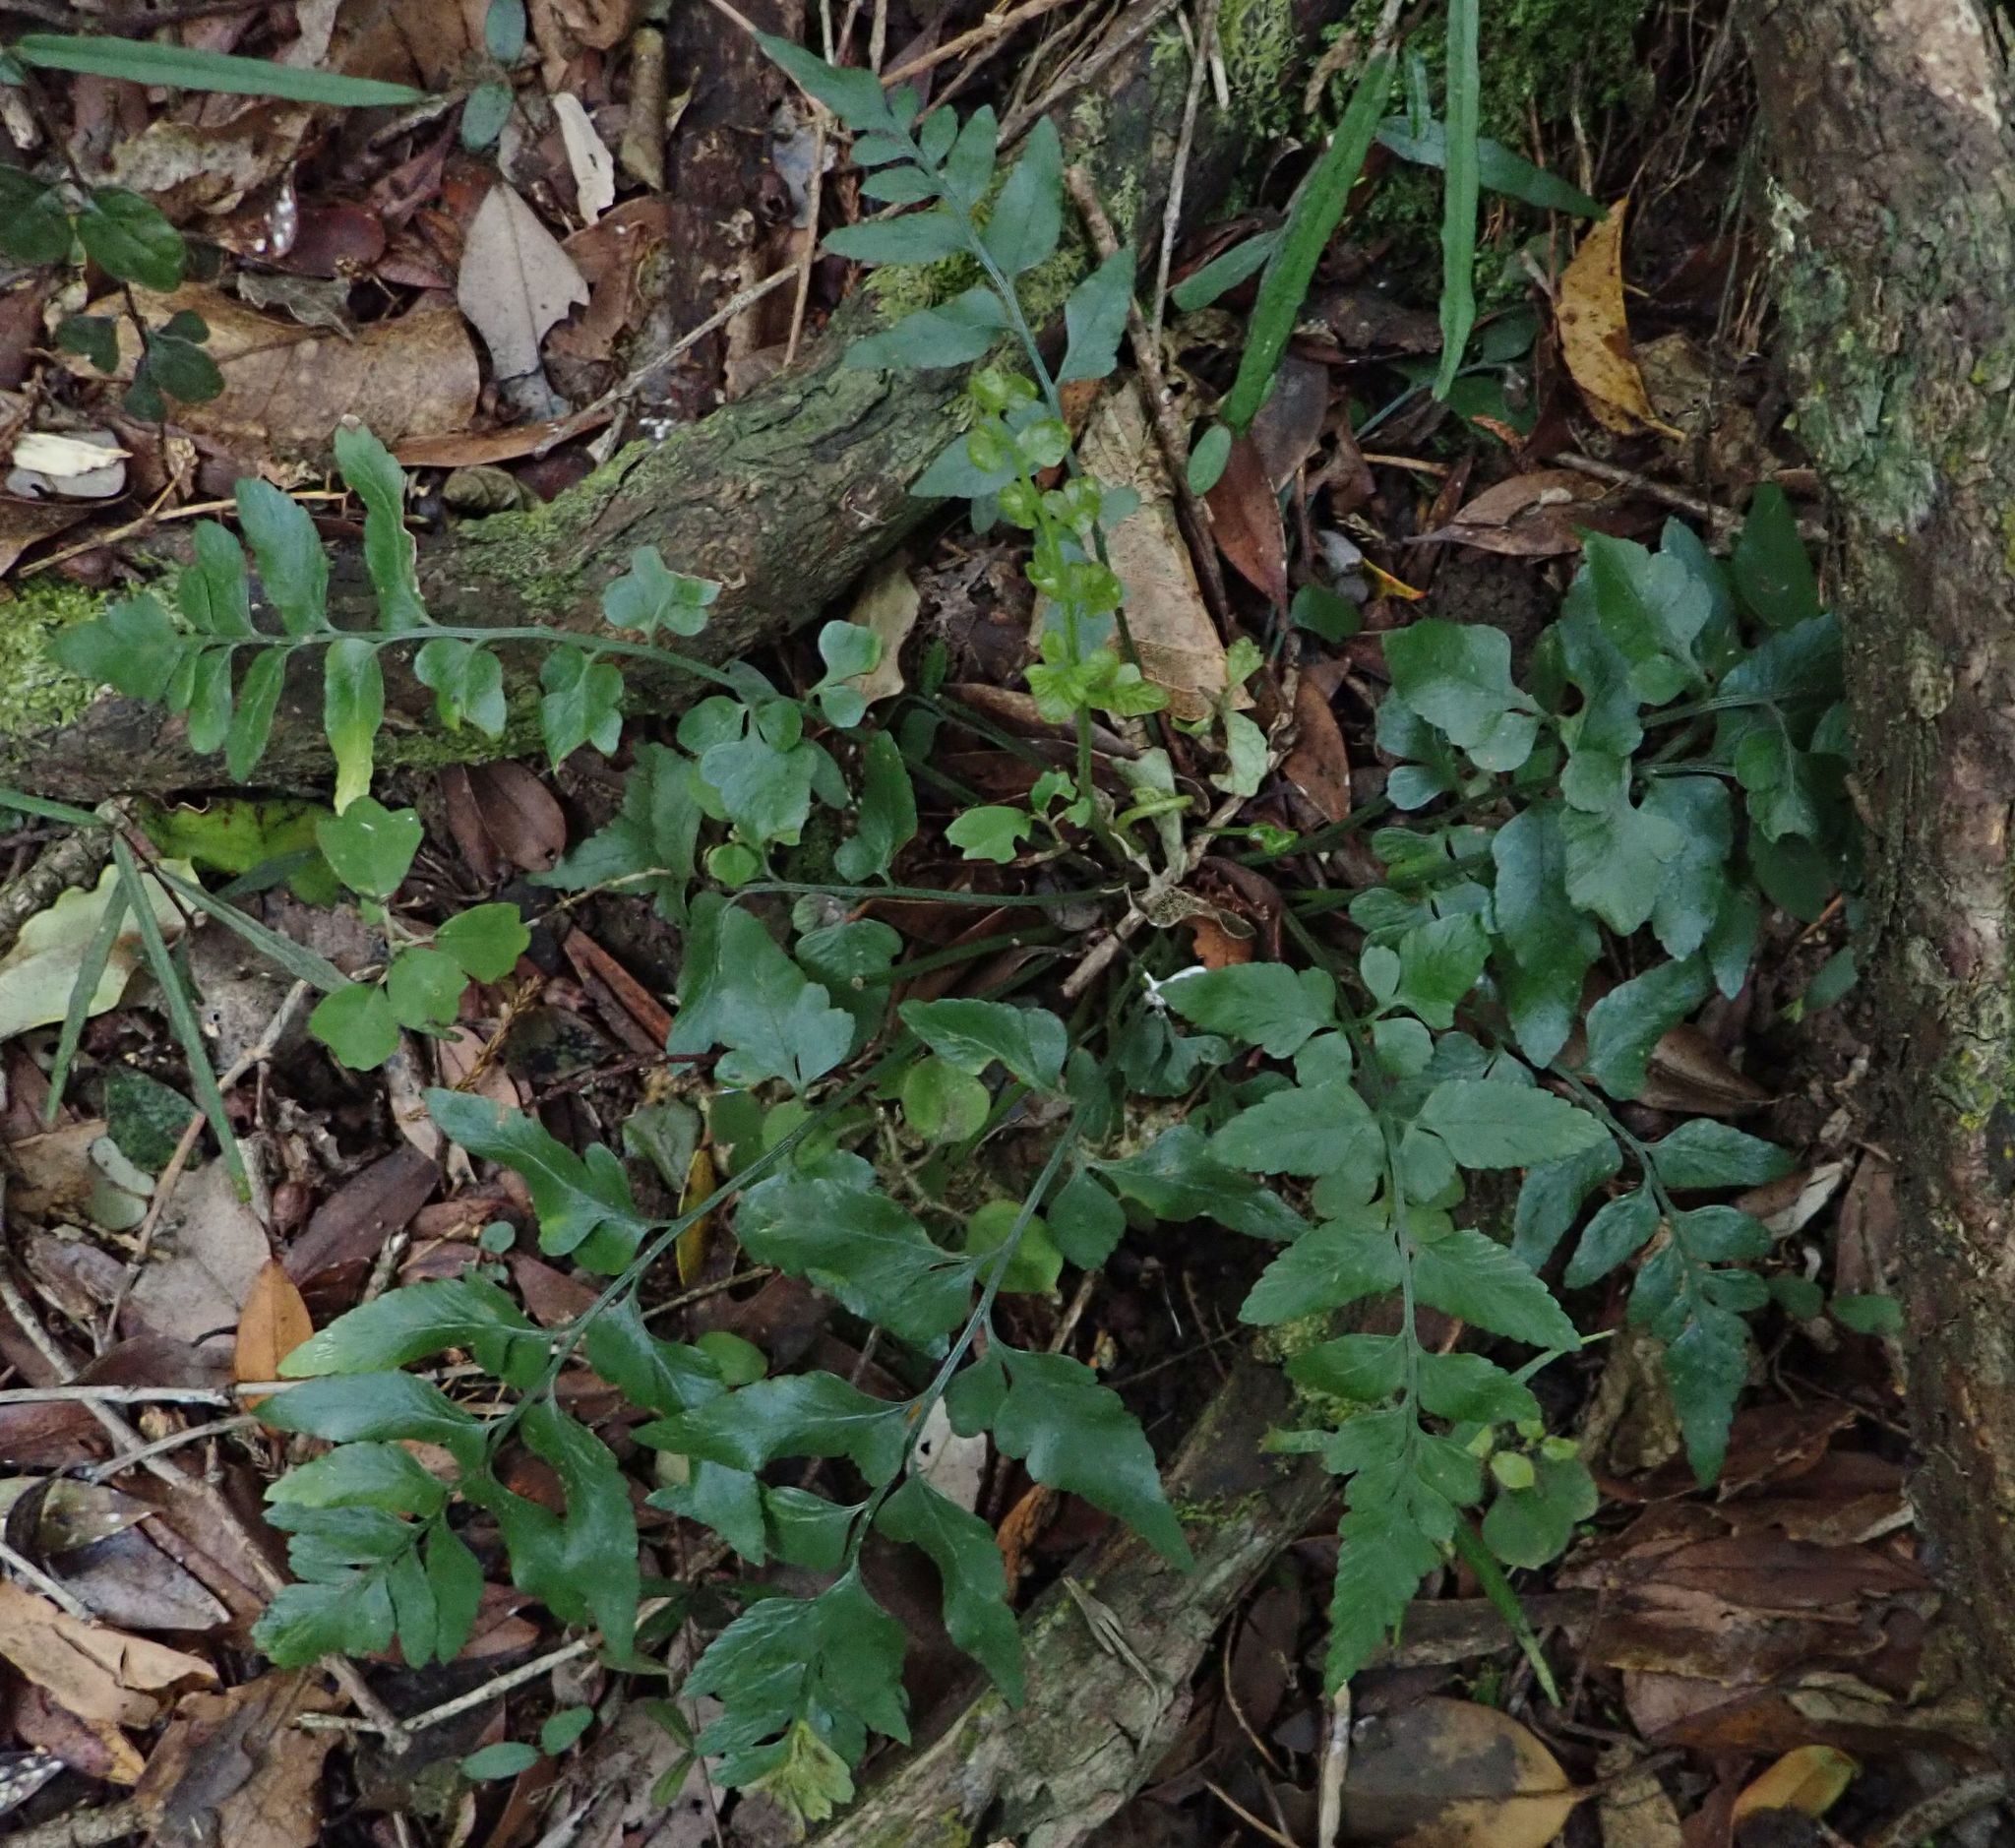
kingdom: Plantae
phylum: Tracheophyta
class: Polypodiopsida
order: Polypodiales
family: Aspleniaceae
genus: Asplenium
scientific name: Asplenium lyallii
